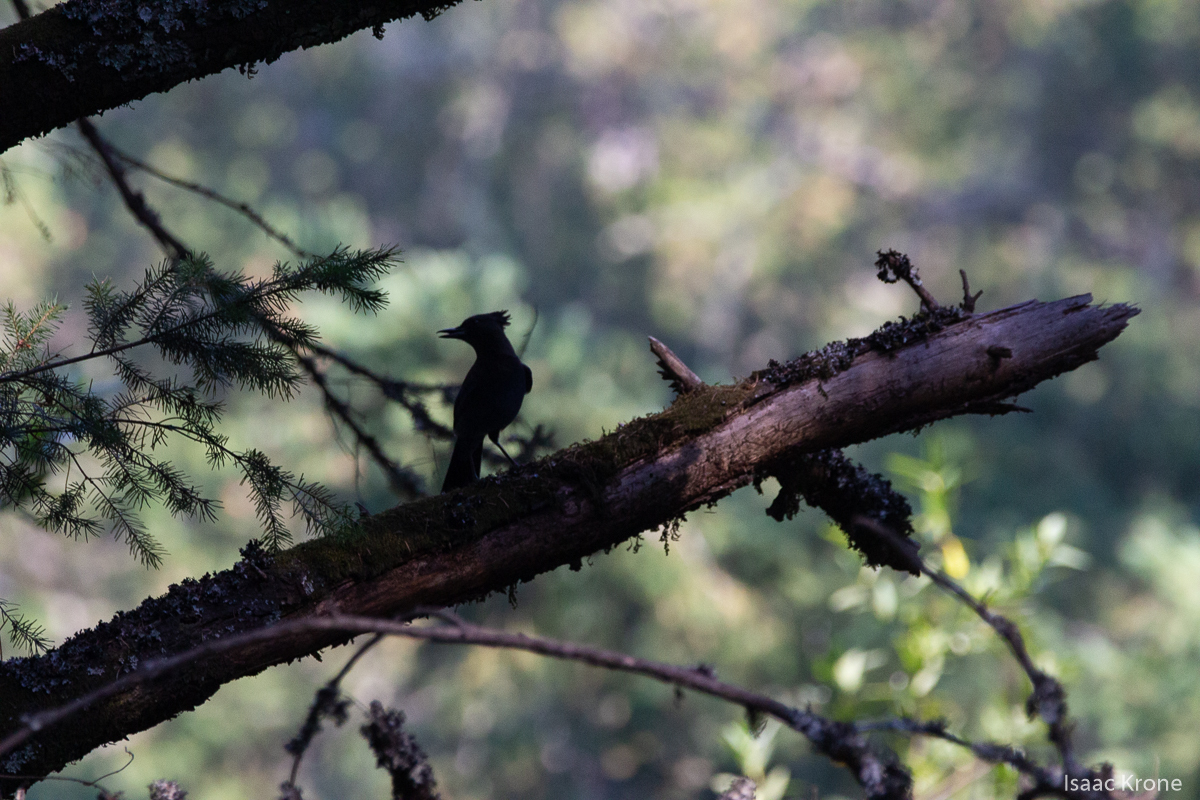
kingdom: Animalia
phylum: Chordata
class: Aves
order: Passeriformes
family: Corvidae
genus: Cyanocitta
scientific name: Cyanocitta stelleri
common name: Steller's jay
